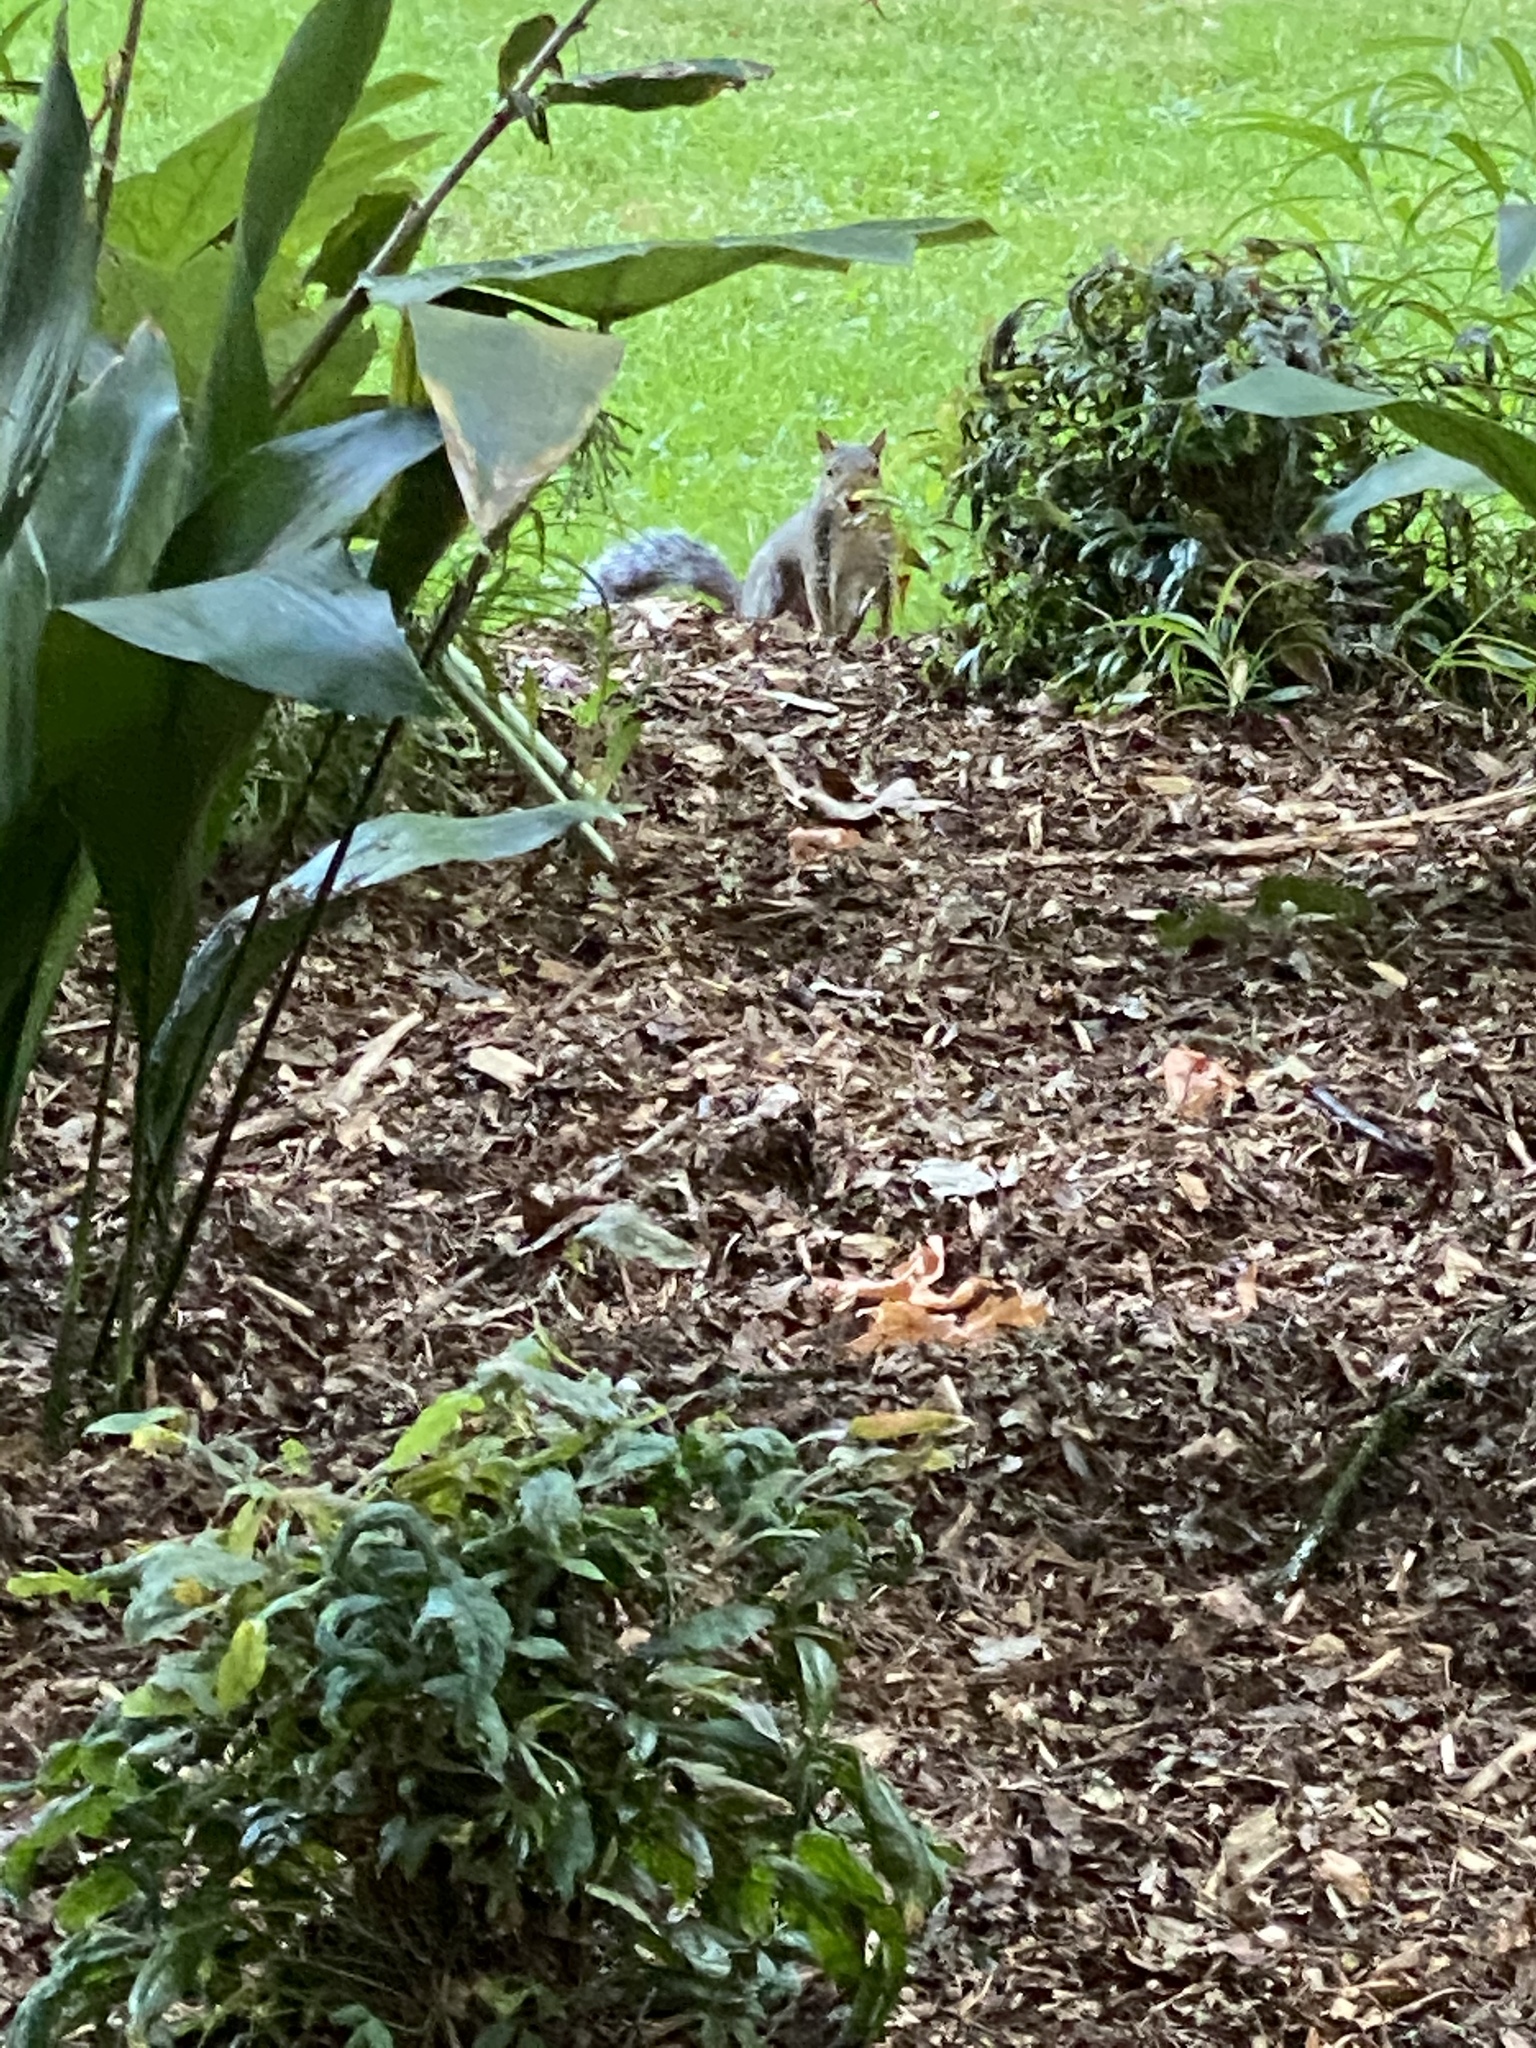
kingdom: Animalia
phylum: Chordata
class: Mammalia
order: Rodentia
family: Sciuridae
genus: Sciurus
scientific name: Sciurus carolinensis
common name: Eastern gray squirrel
